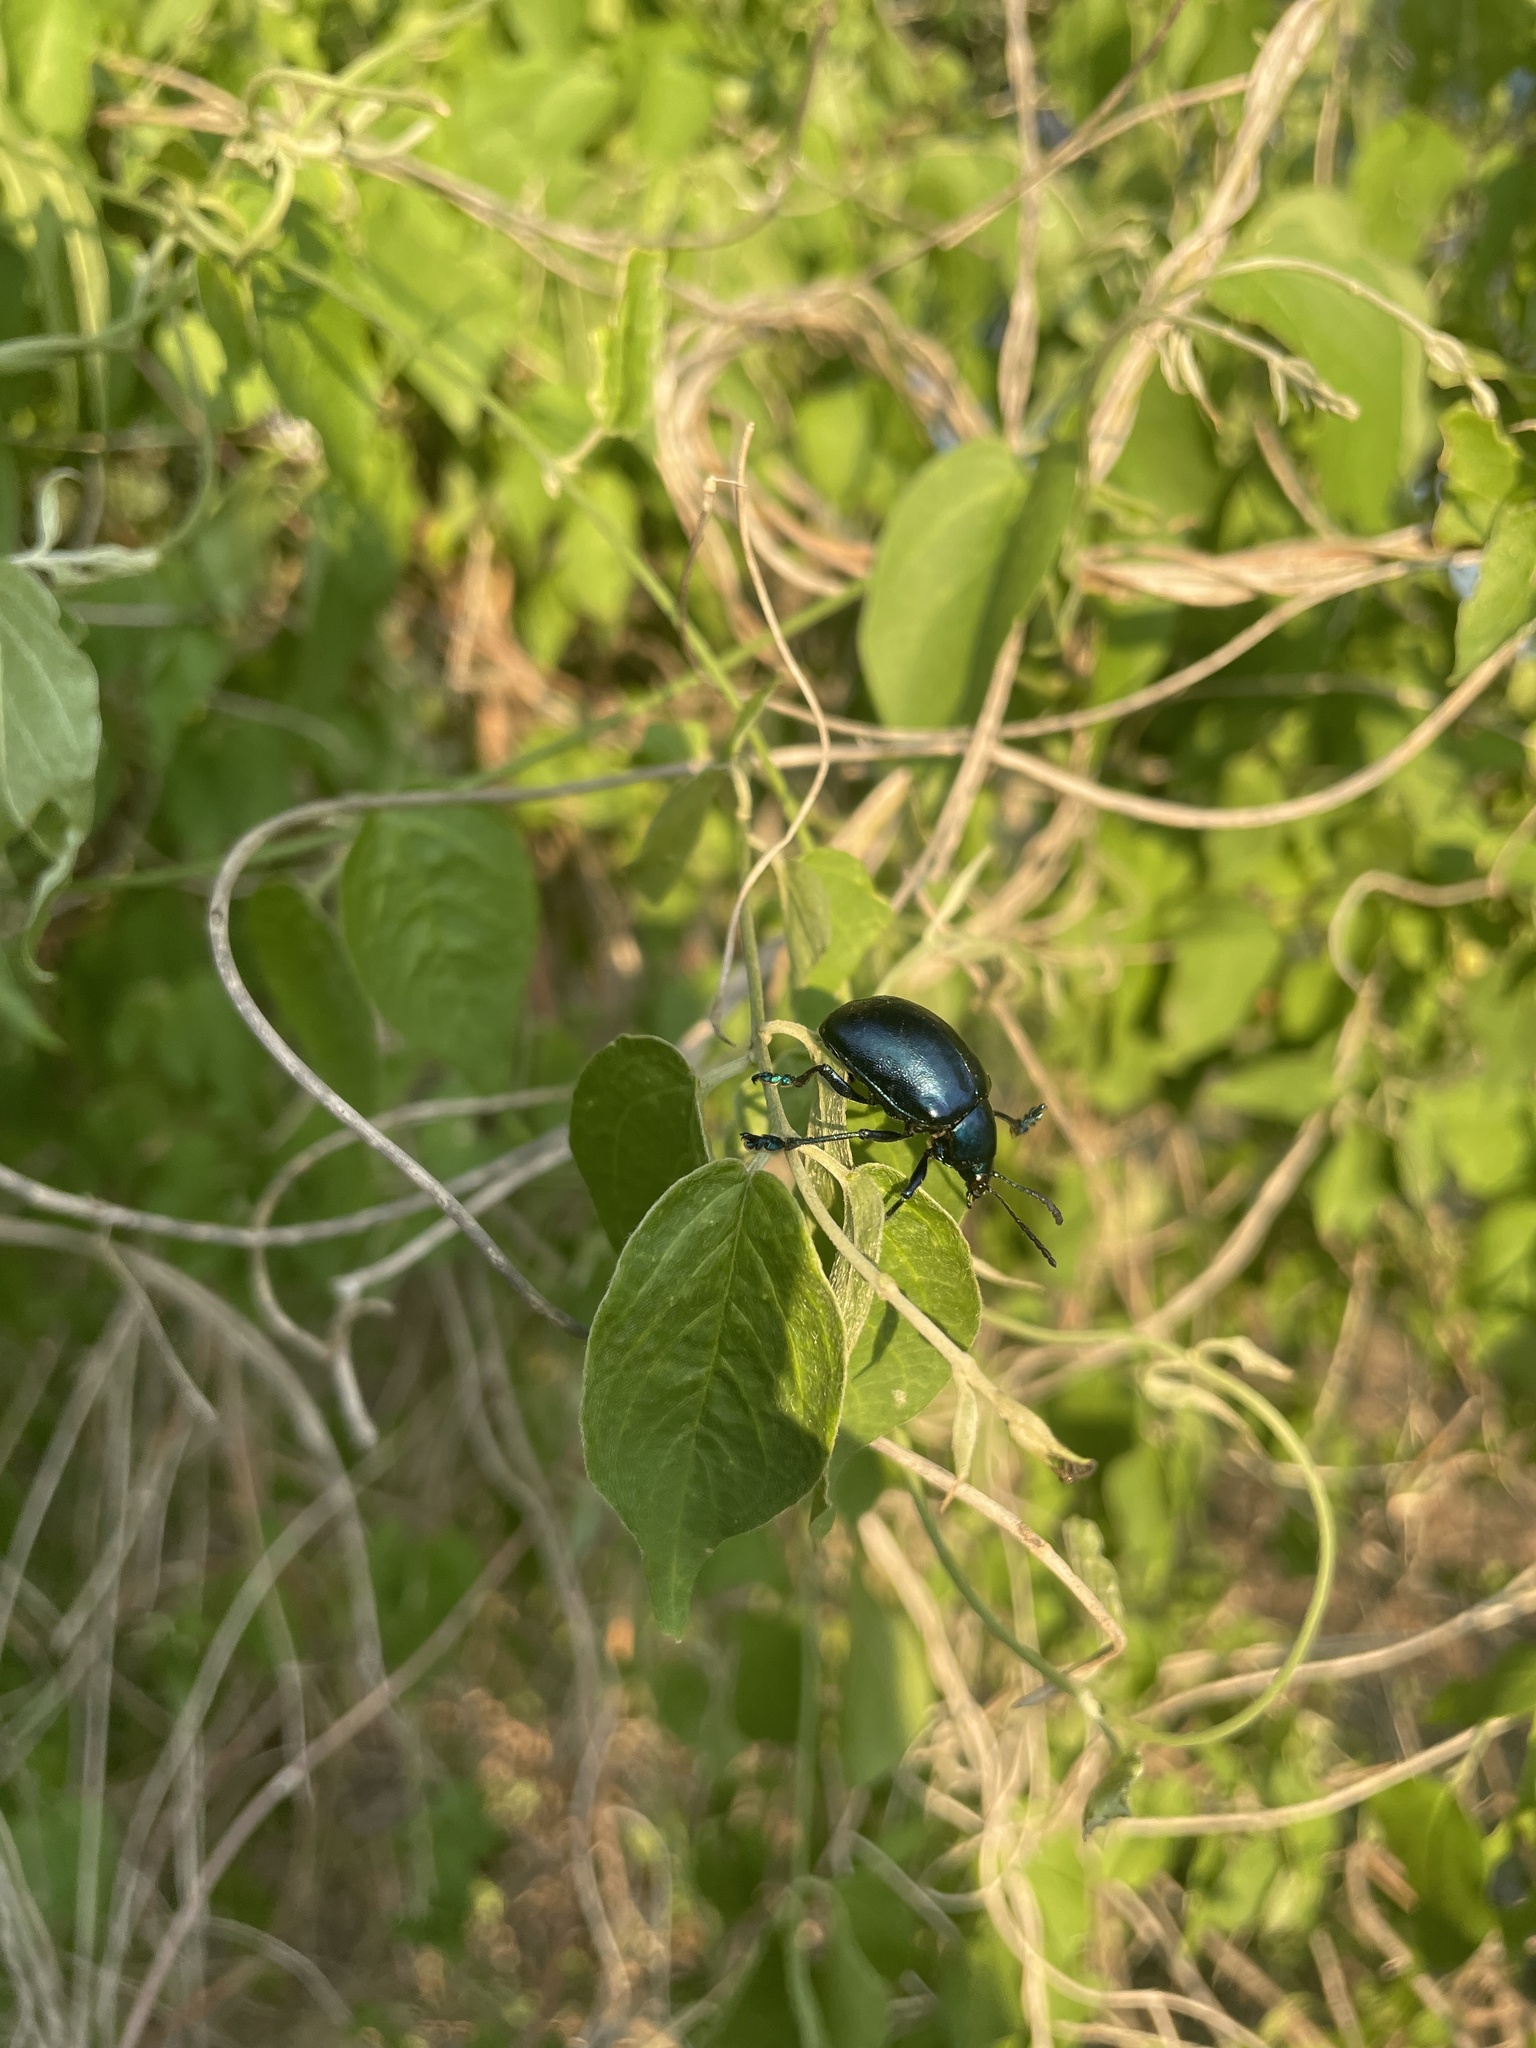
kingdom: Animalia
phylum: Arthropoda
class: Insecta
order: Coleoptera
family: Chrysomelidae
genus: Eumolpus
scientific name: Eumolpus robustus
